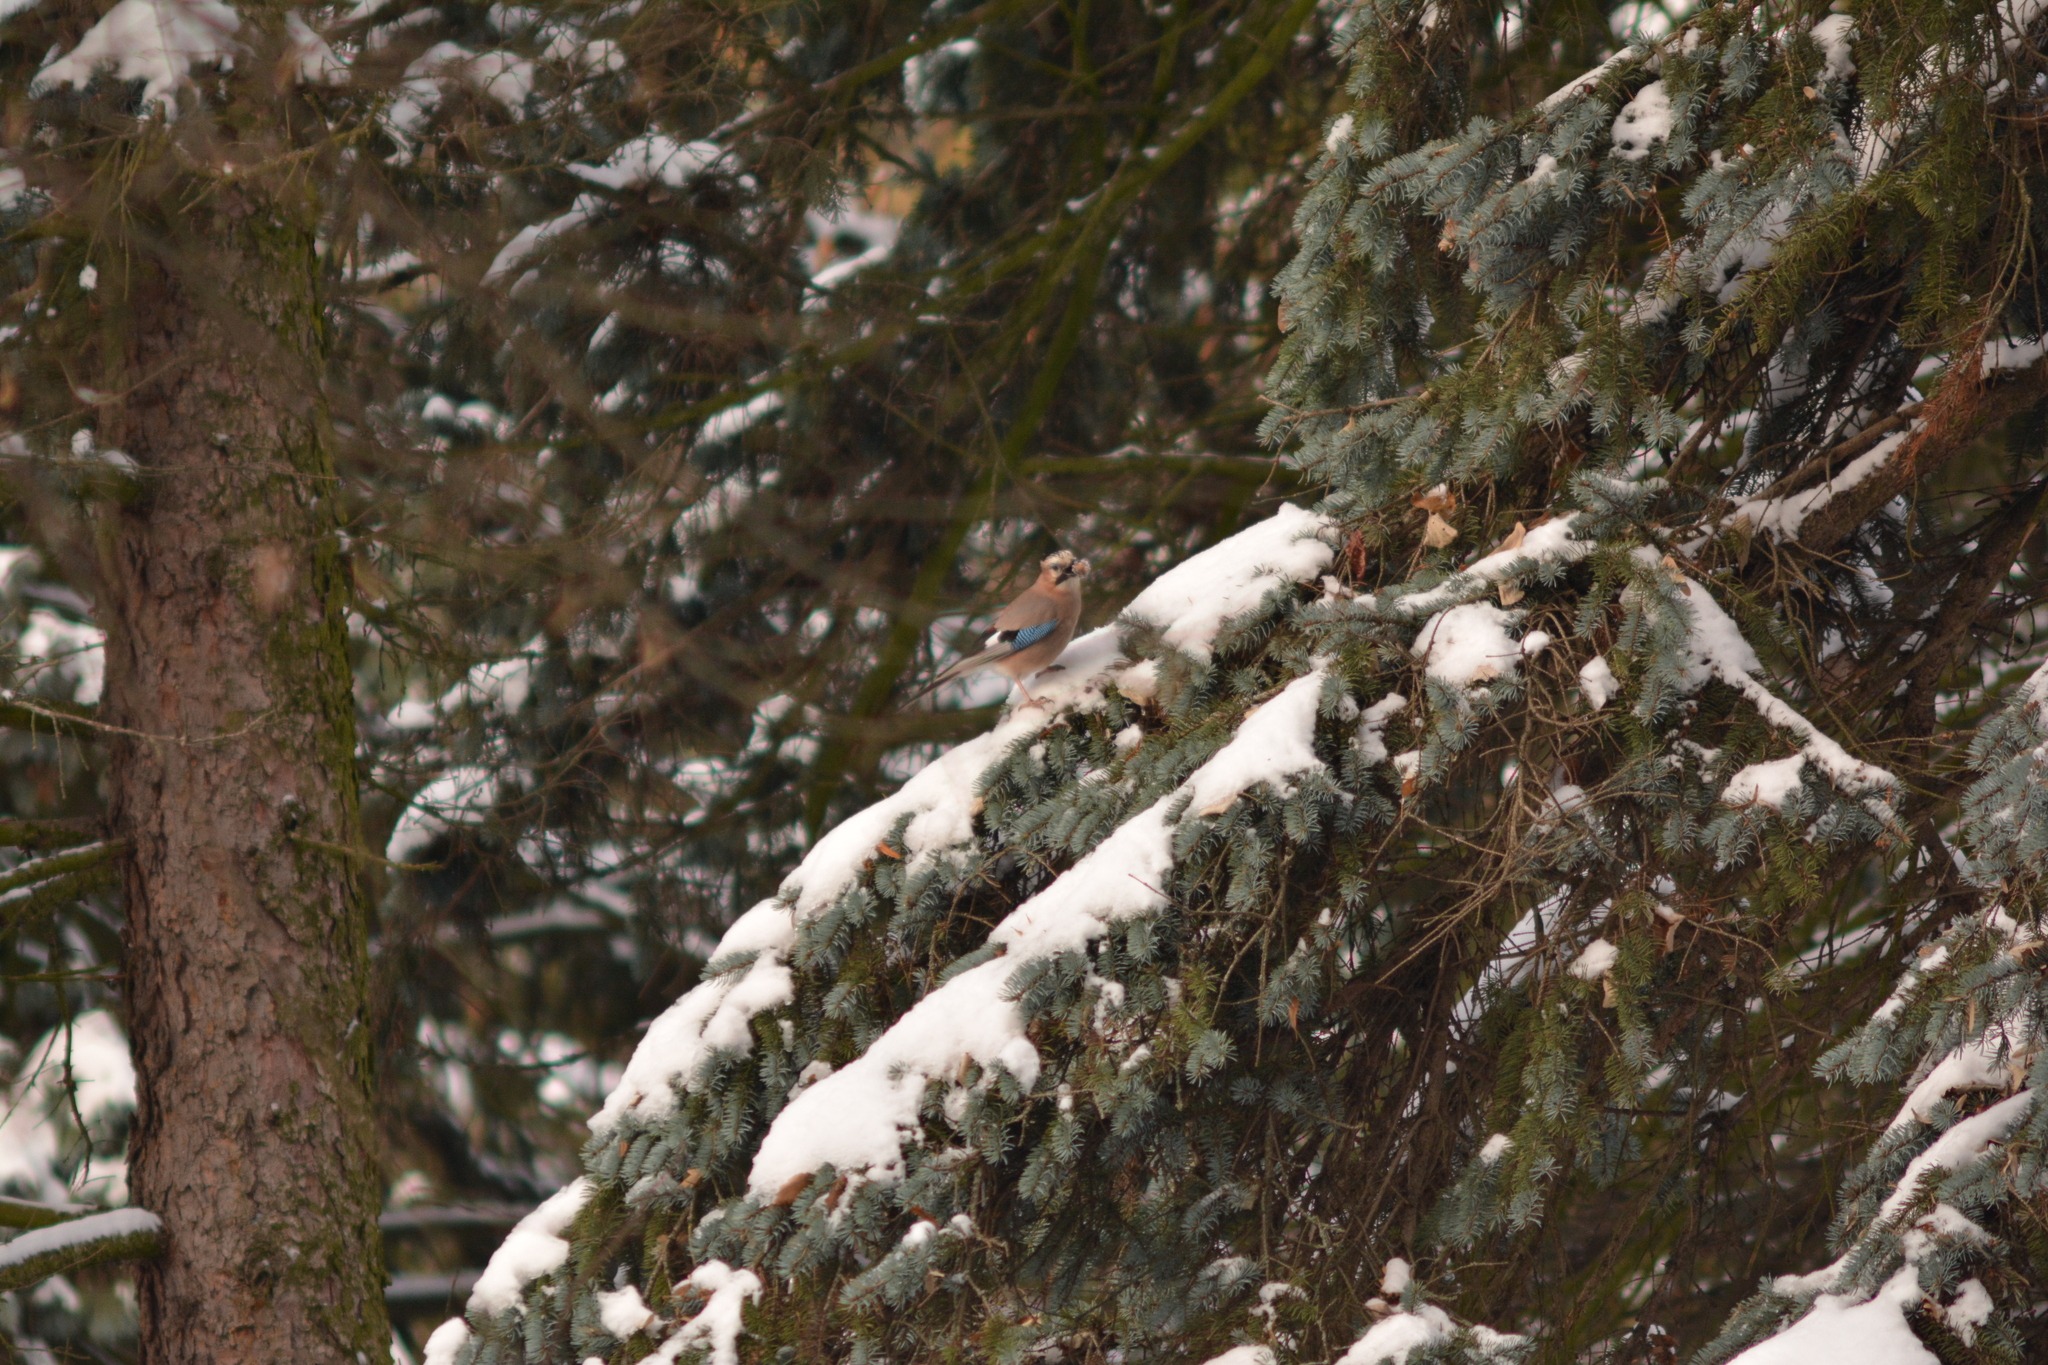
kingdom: Animalia
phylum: Chordata
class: Aves
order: Passeriformes
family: Corvidae
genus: Garrulus
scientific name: Garrulus glandarius
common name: Eurasian jay
